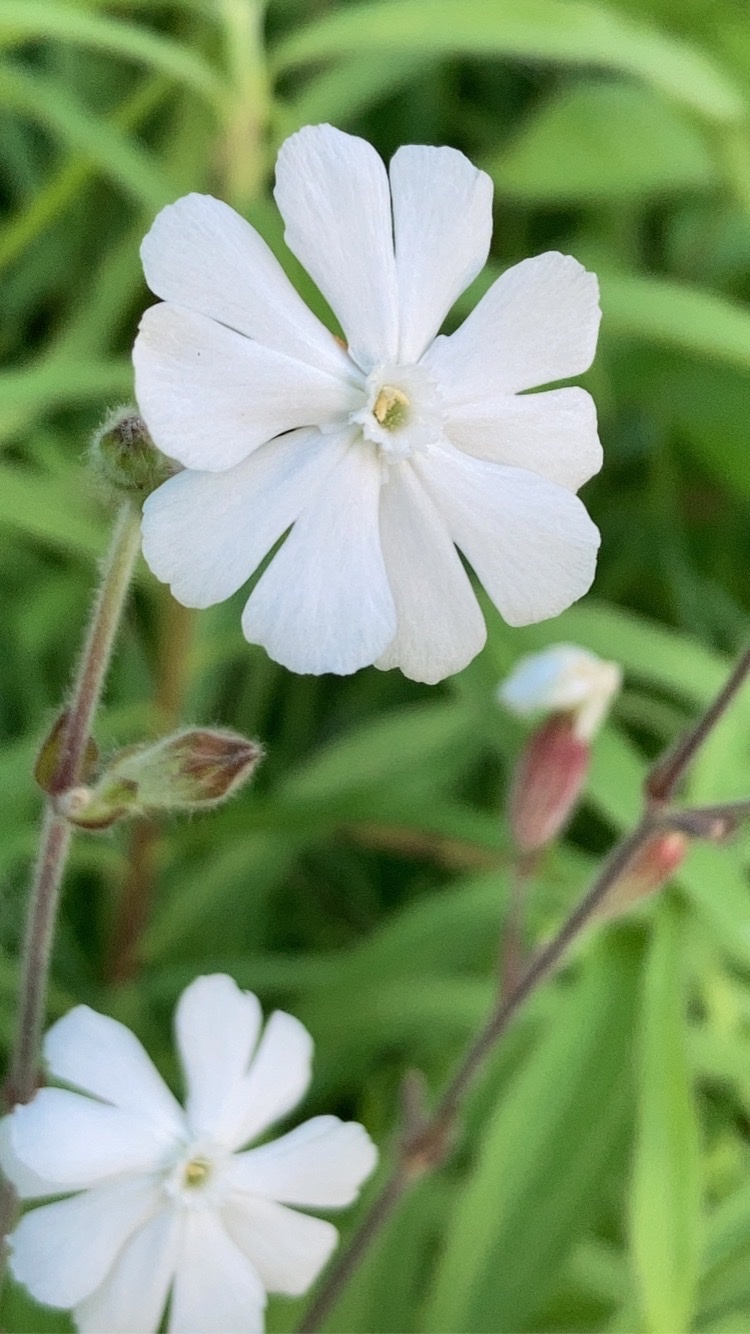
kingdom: Plantae
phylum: Tracheophyta
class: Magnoliopsida
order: Caryophyllales
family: Caryophyllaceae
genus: Silene
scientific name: Silene latifolia
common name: White campion
